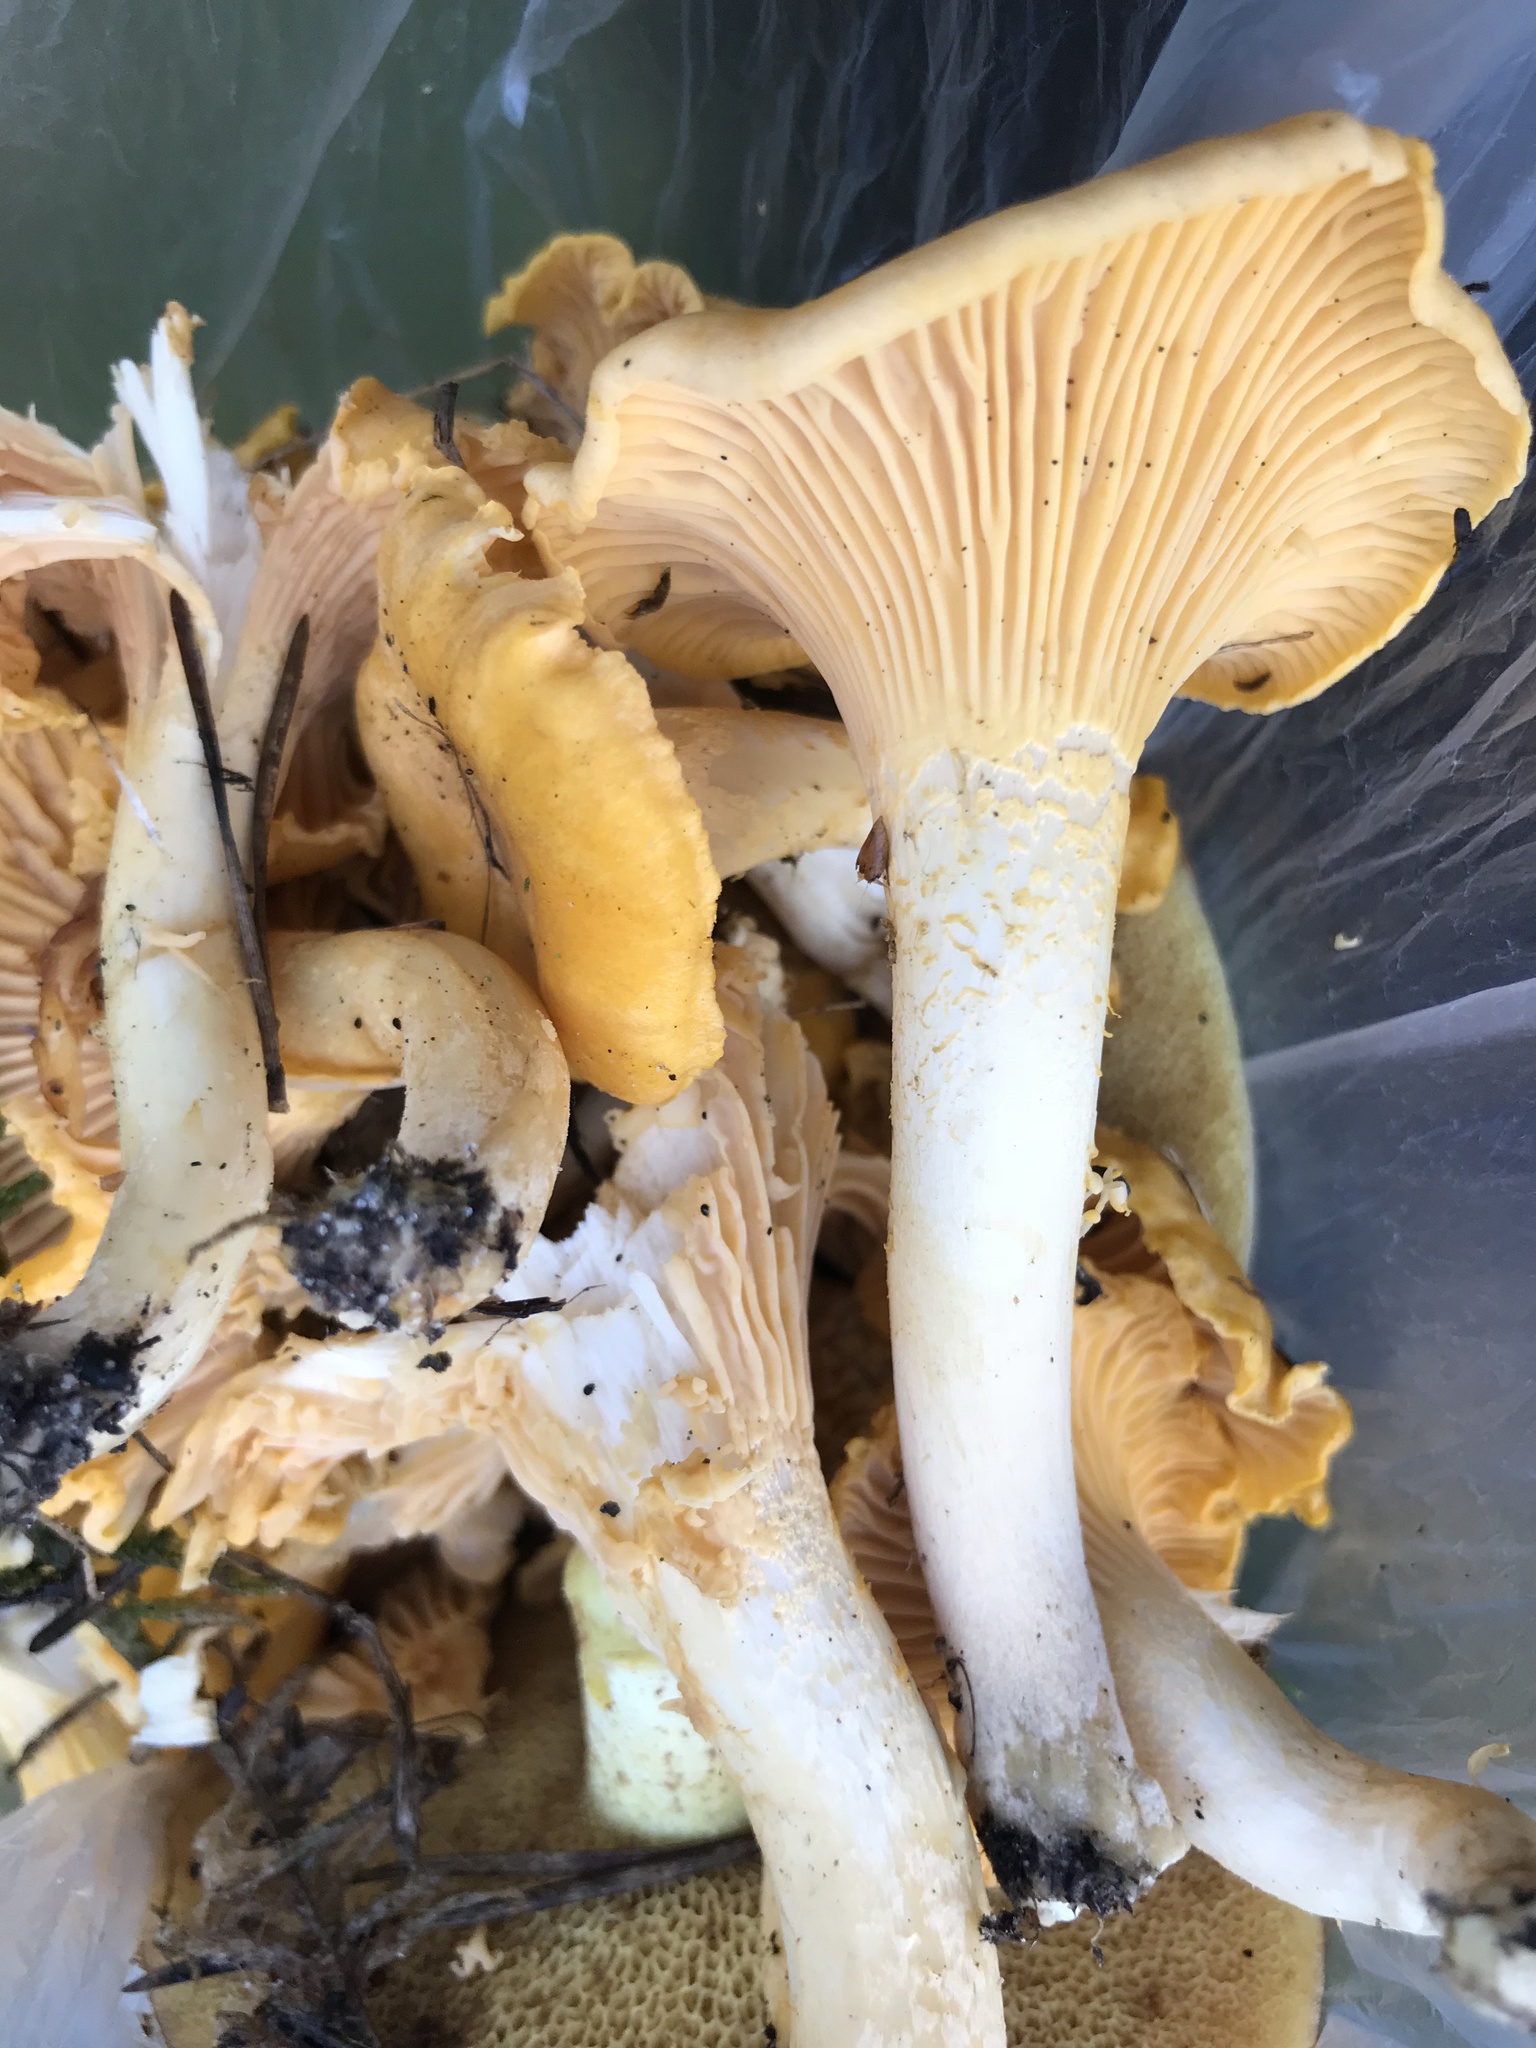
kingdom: Fungi
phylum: Basidiomycota
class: Agaricomycetes
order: Cantharellales
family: Hydnaceae
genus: Cantharellus
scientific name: Cantharellus cibarius
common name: Chanterelle
